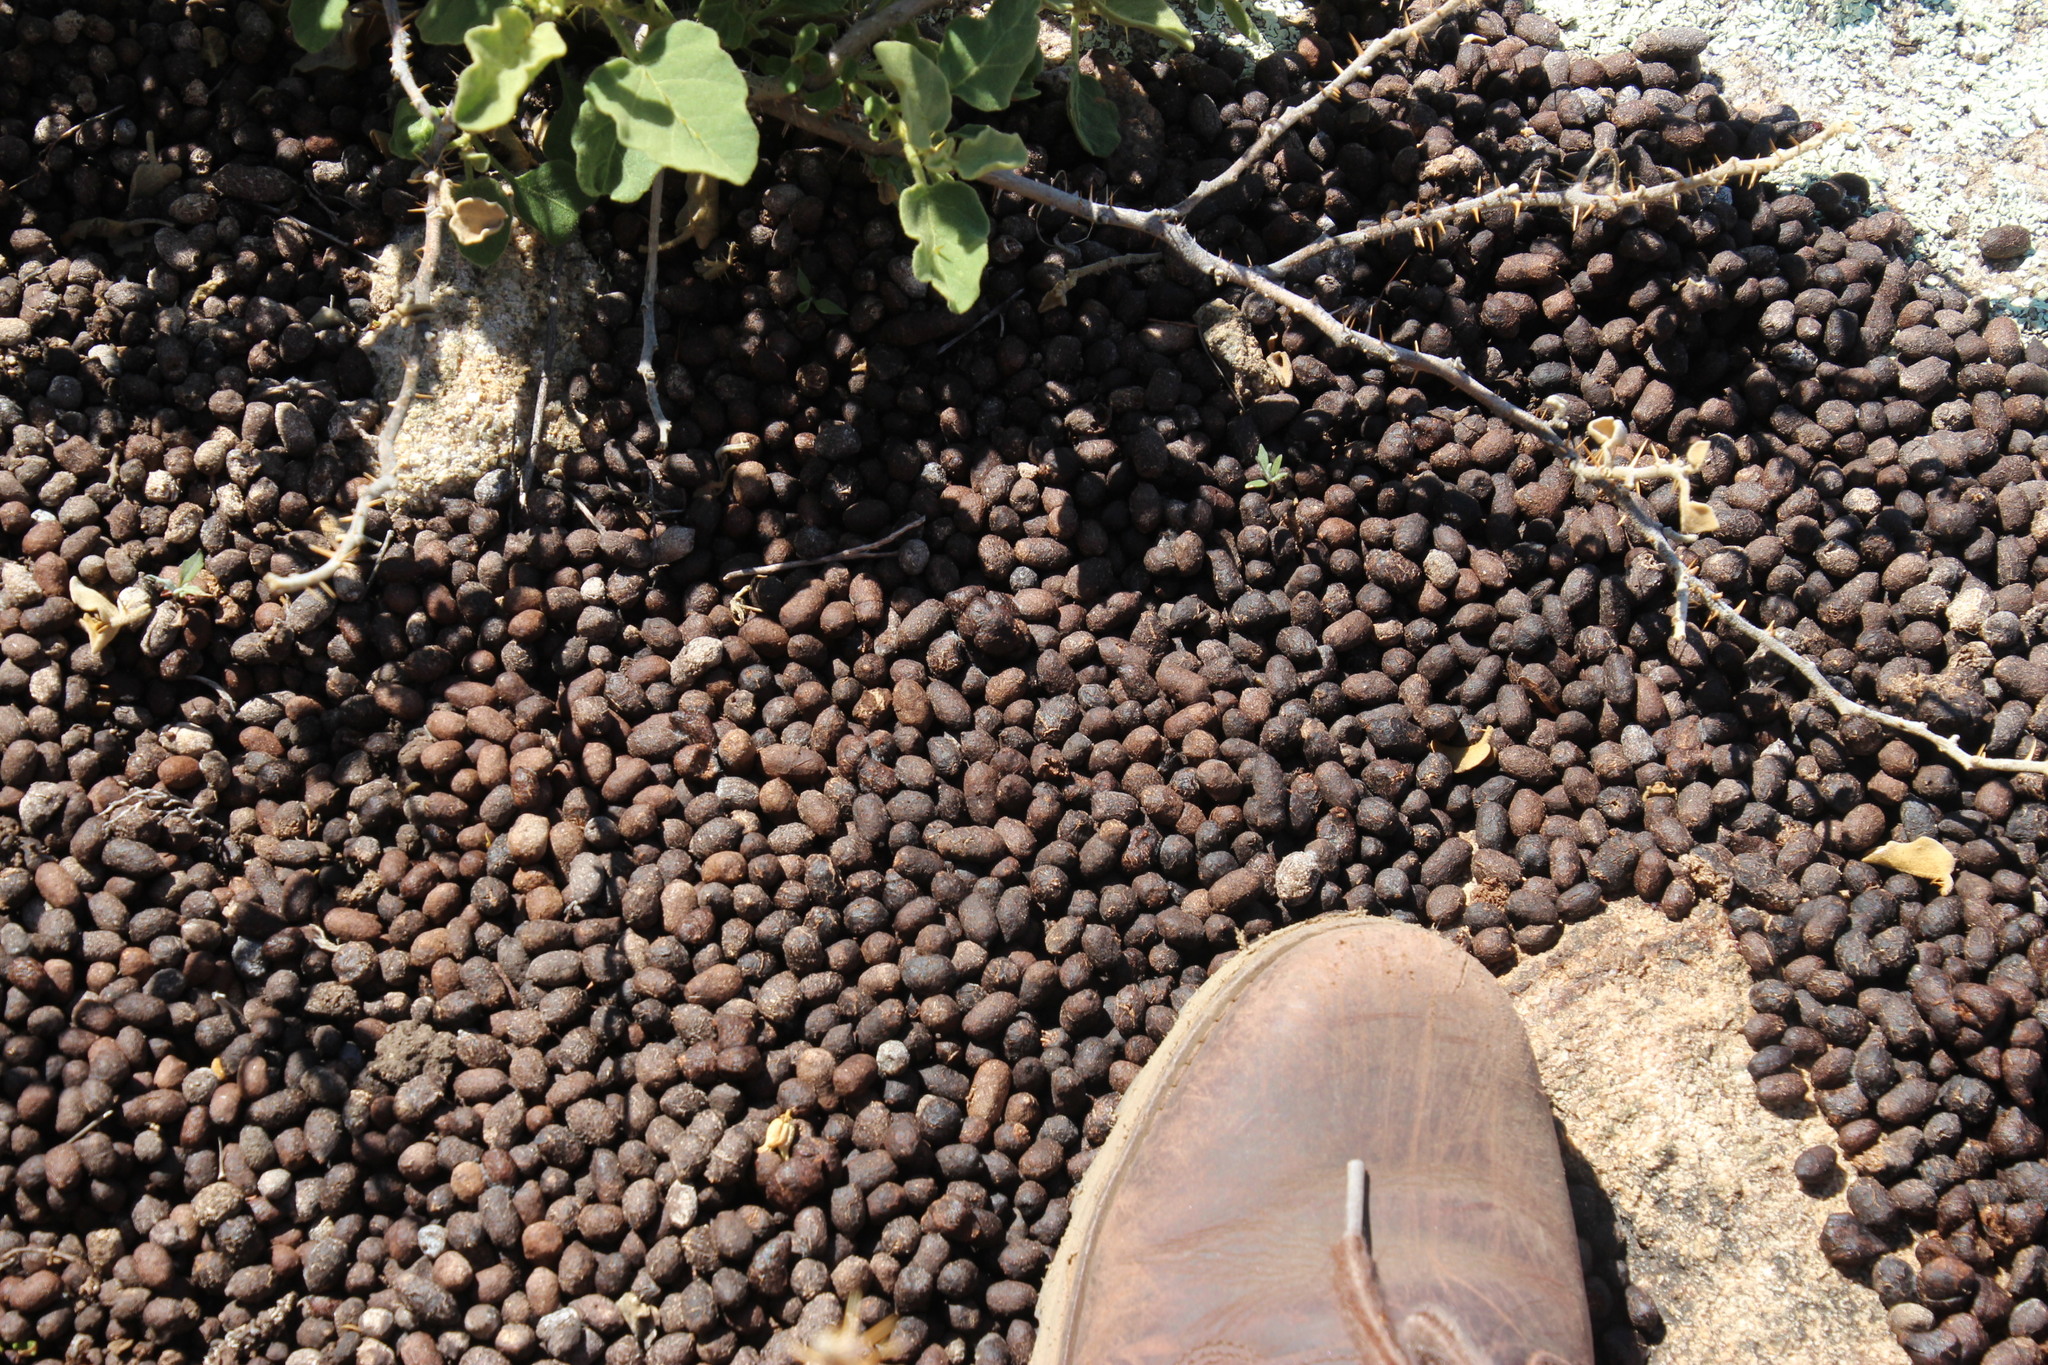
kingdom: Plantae
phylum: Tracheophyta
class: Magnoliopsida
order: Solanales
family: Solanaceae
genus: Solanum
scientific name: Solanum tomentosum
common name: Wild aubergine
